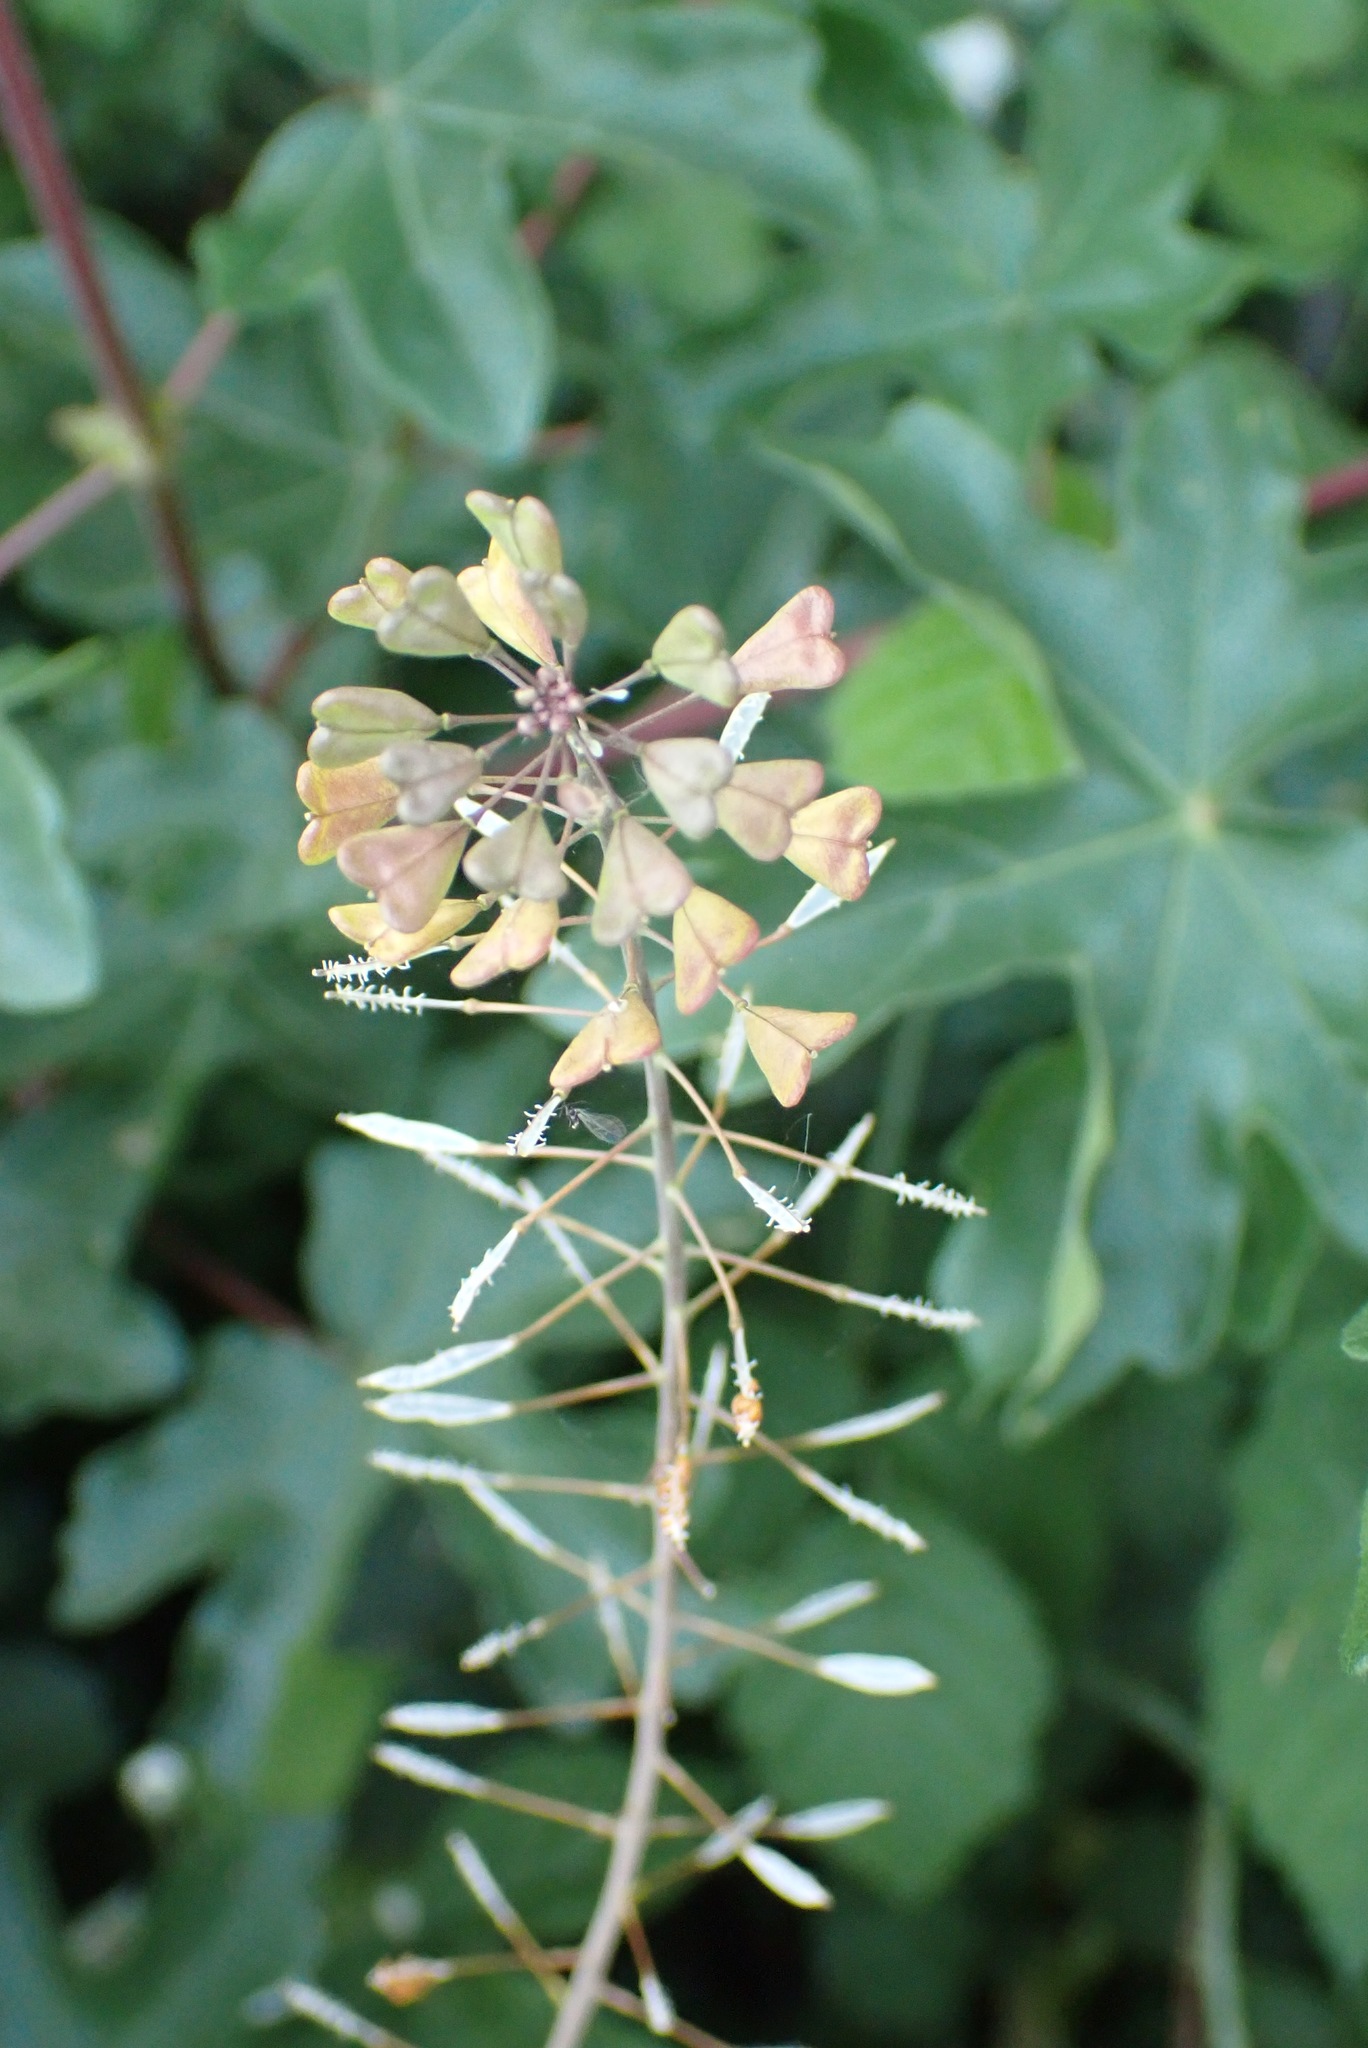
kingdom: Plantae
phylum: Tracheophyta
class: Magnoliopsida
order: Brassicales
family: Brassicaceae
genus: Capsella
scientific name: Capsella bursa-pastoris
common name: Shepherd's purse
